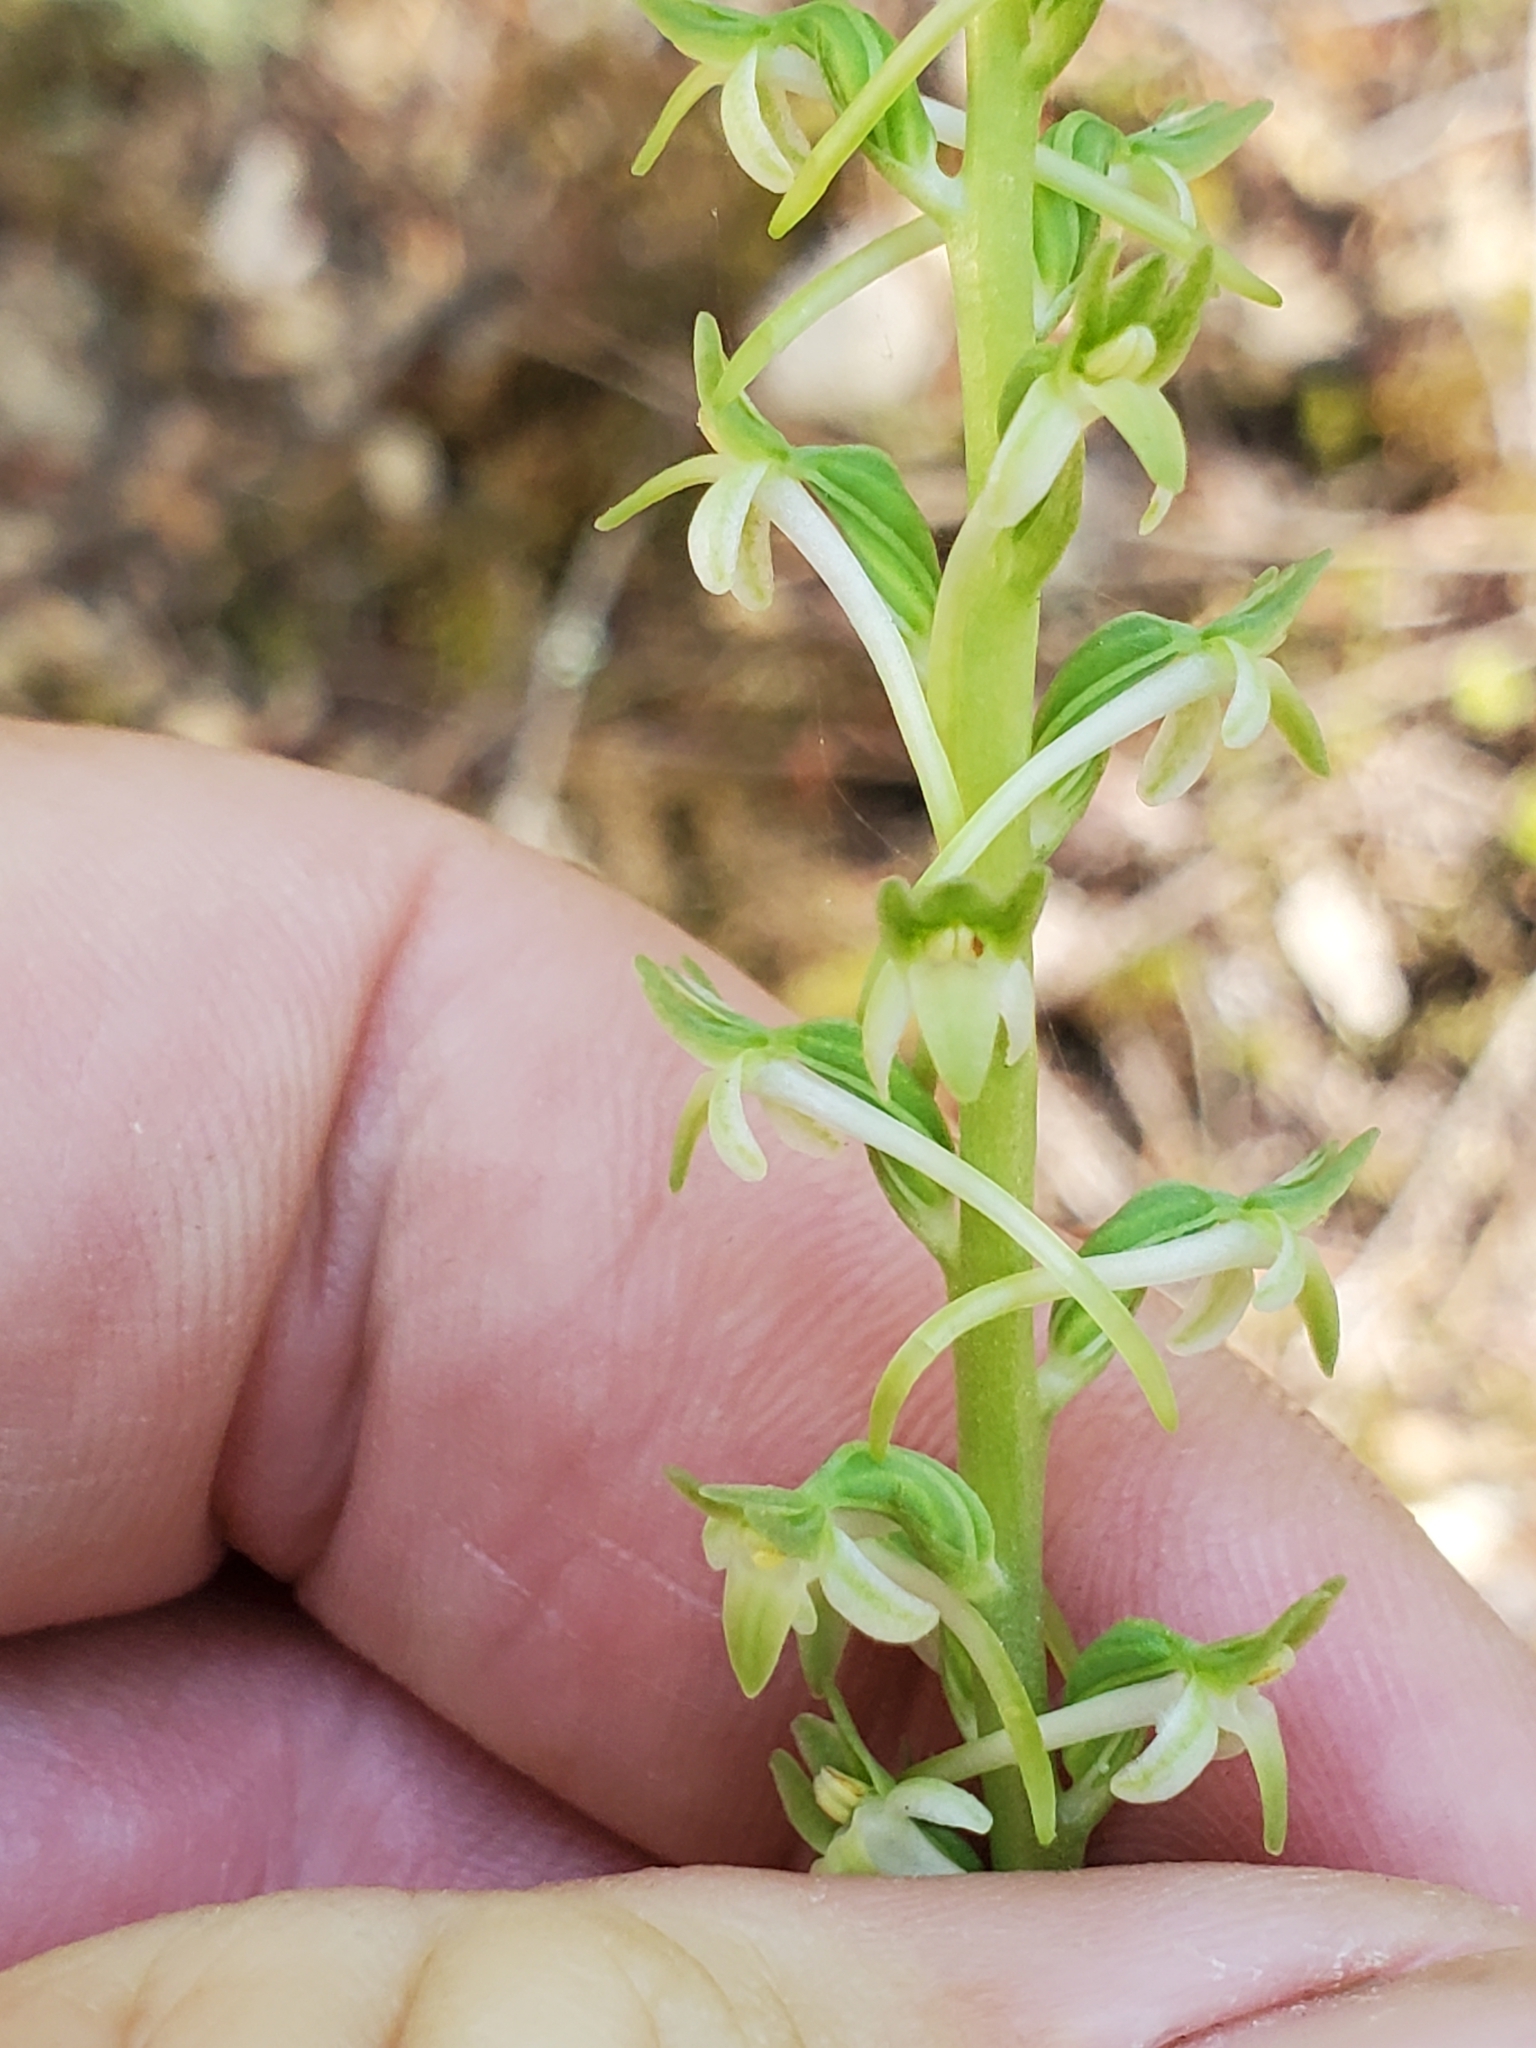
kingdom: Plantae
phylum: Tracheophyta
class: Liliopsida
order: Asparagales
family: Orchidaceae
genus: Platanthera
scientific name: Platanthera transversa
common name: Royal rein orchid
